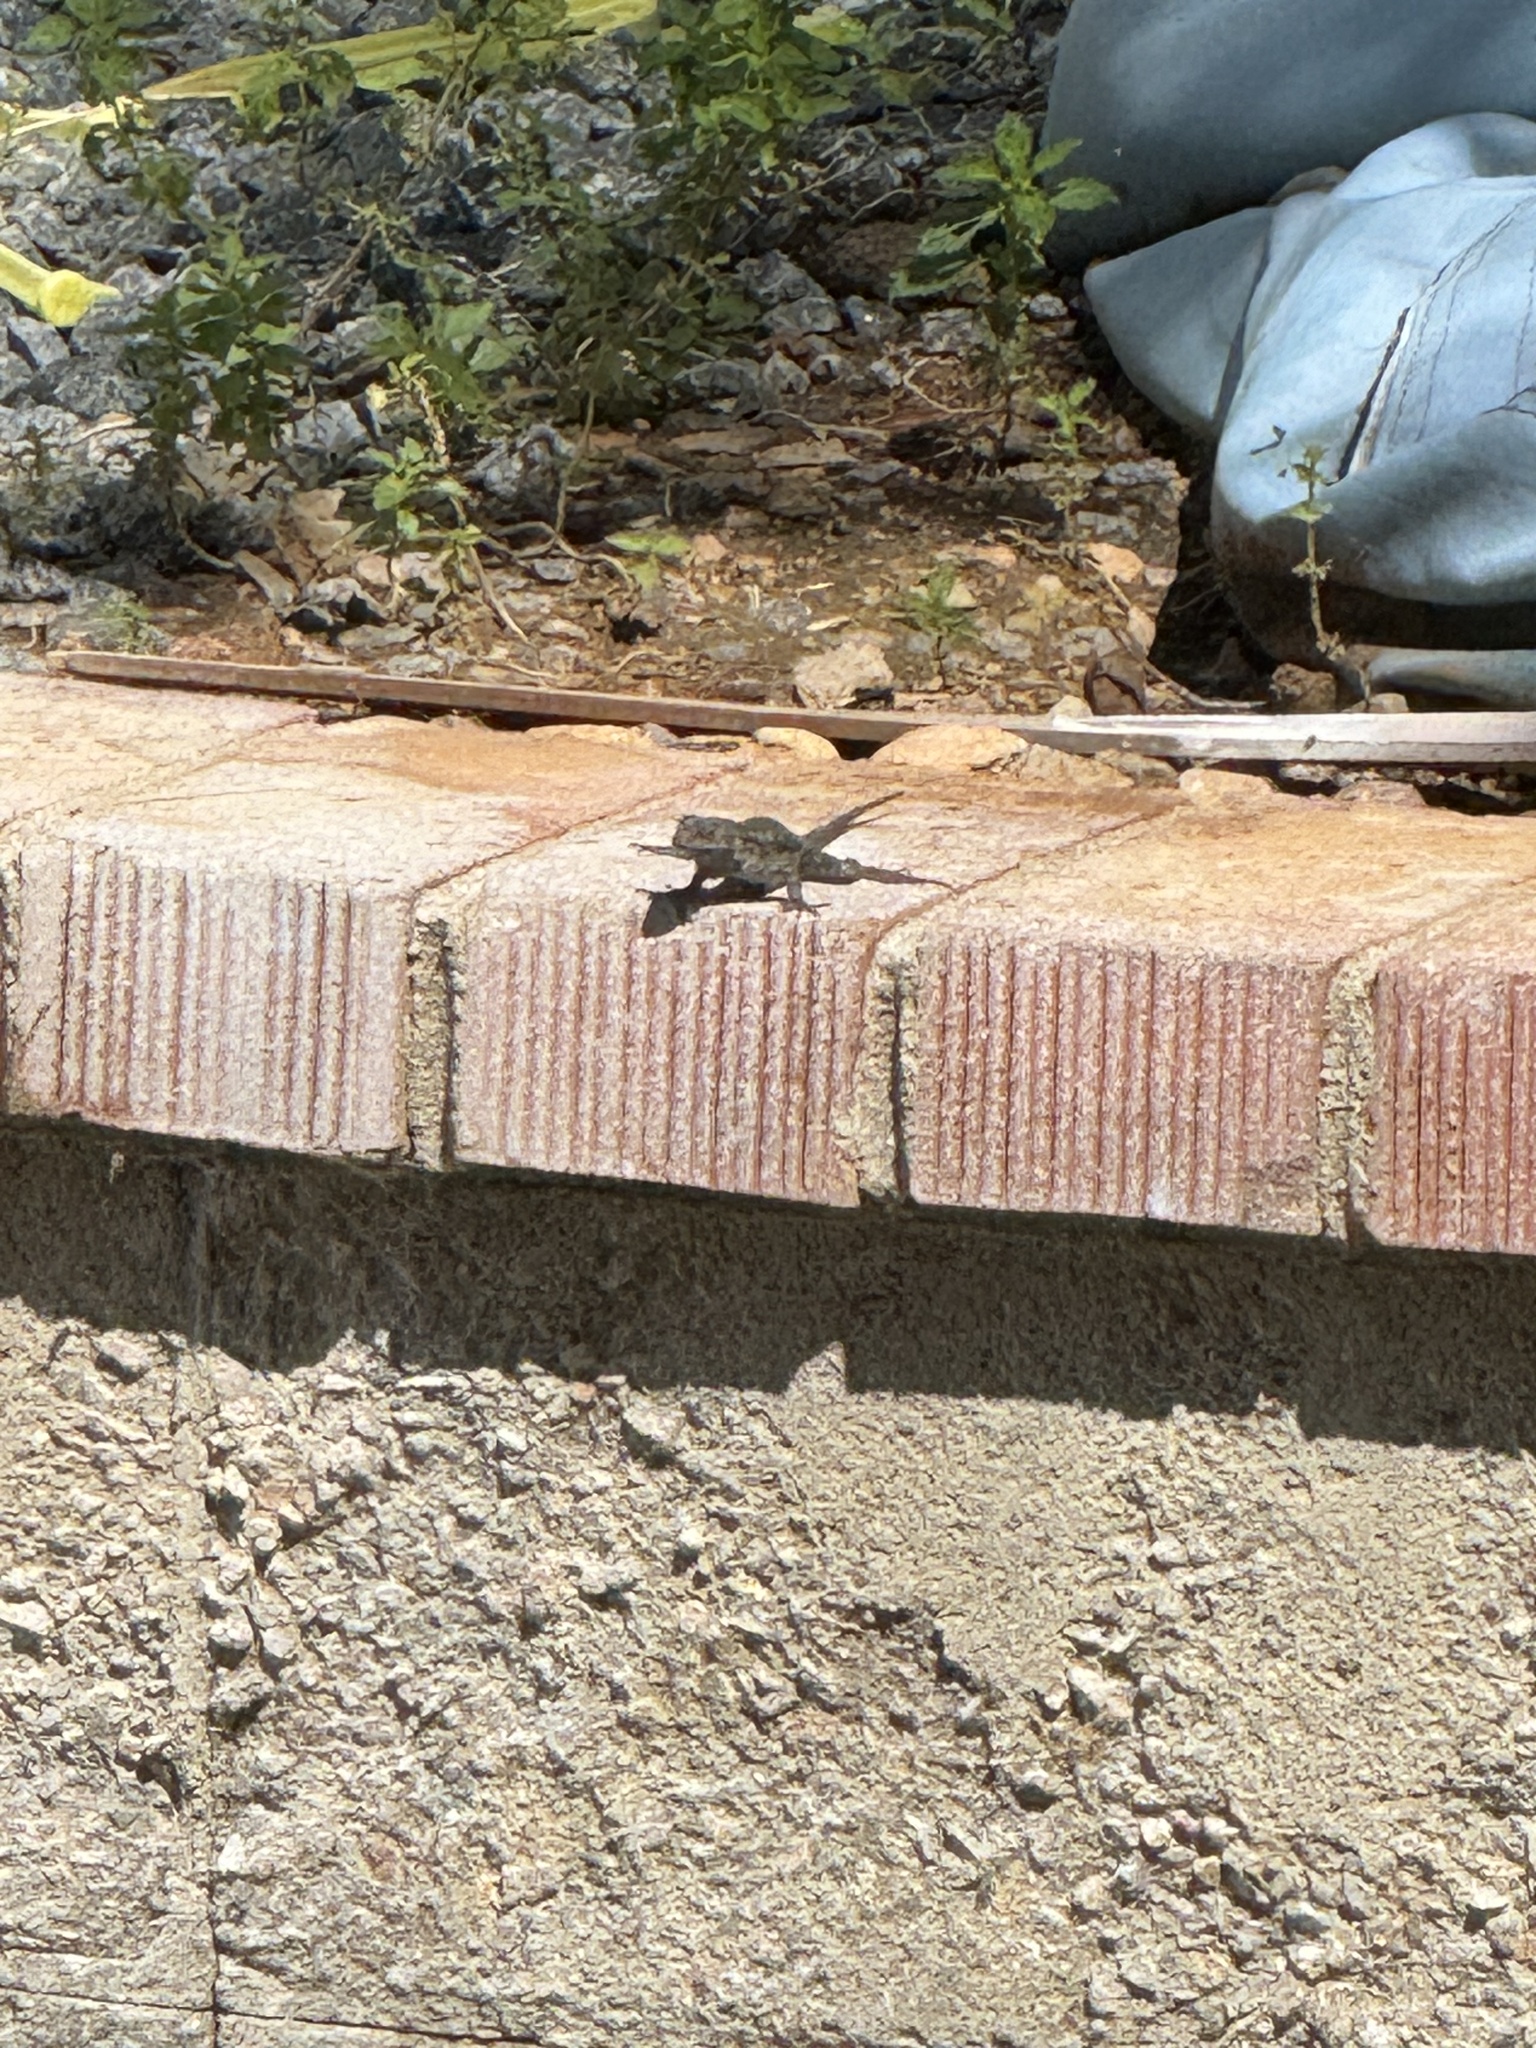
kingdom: Animalia
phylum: Chordata
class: Squamata
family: Phrynosomatidae
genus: Sceloporus
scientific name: Sceloporus occidentalis
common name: Western fence lizard
